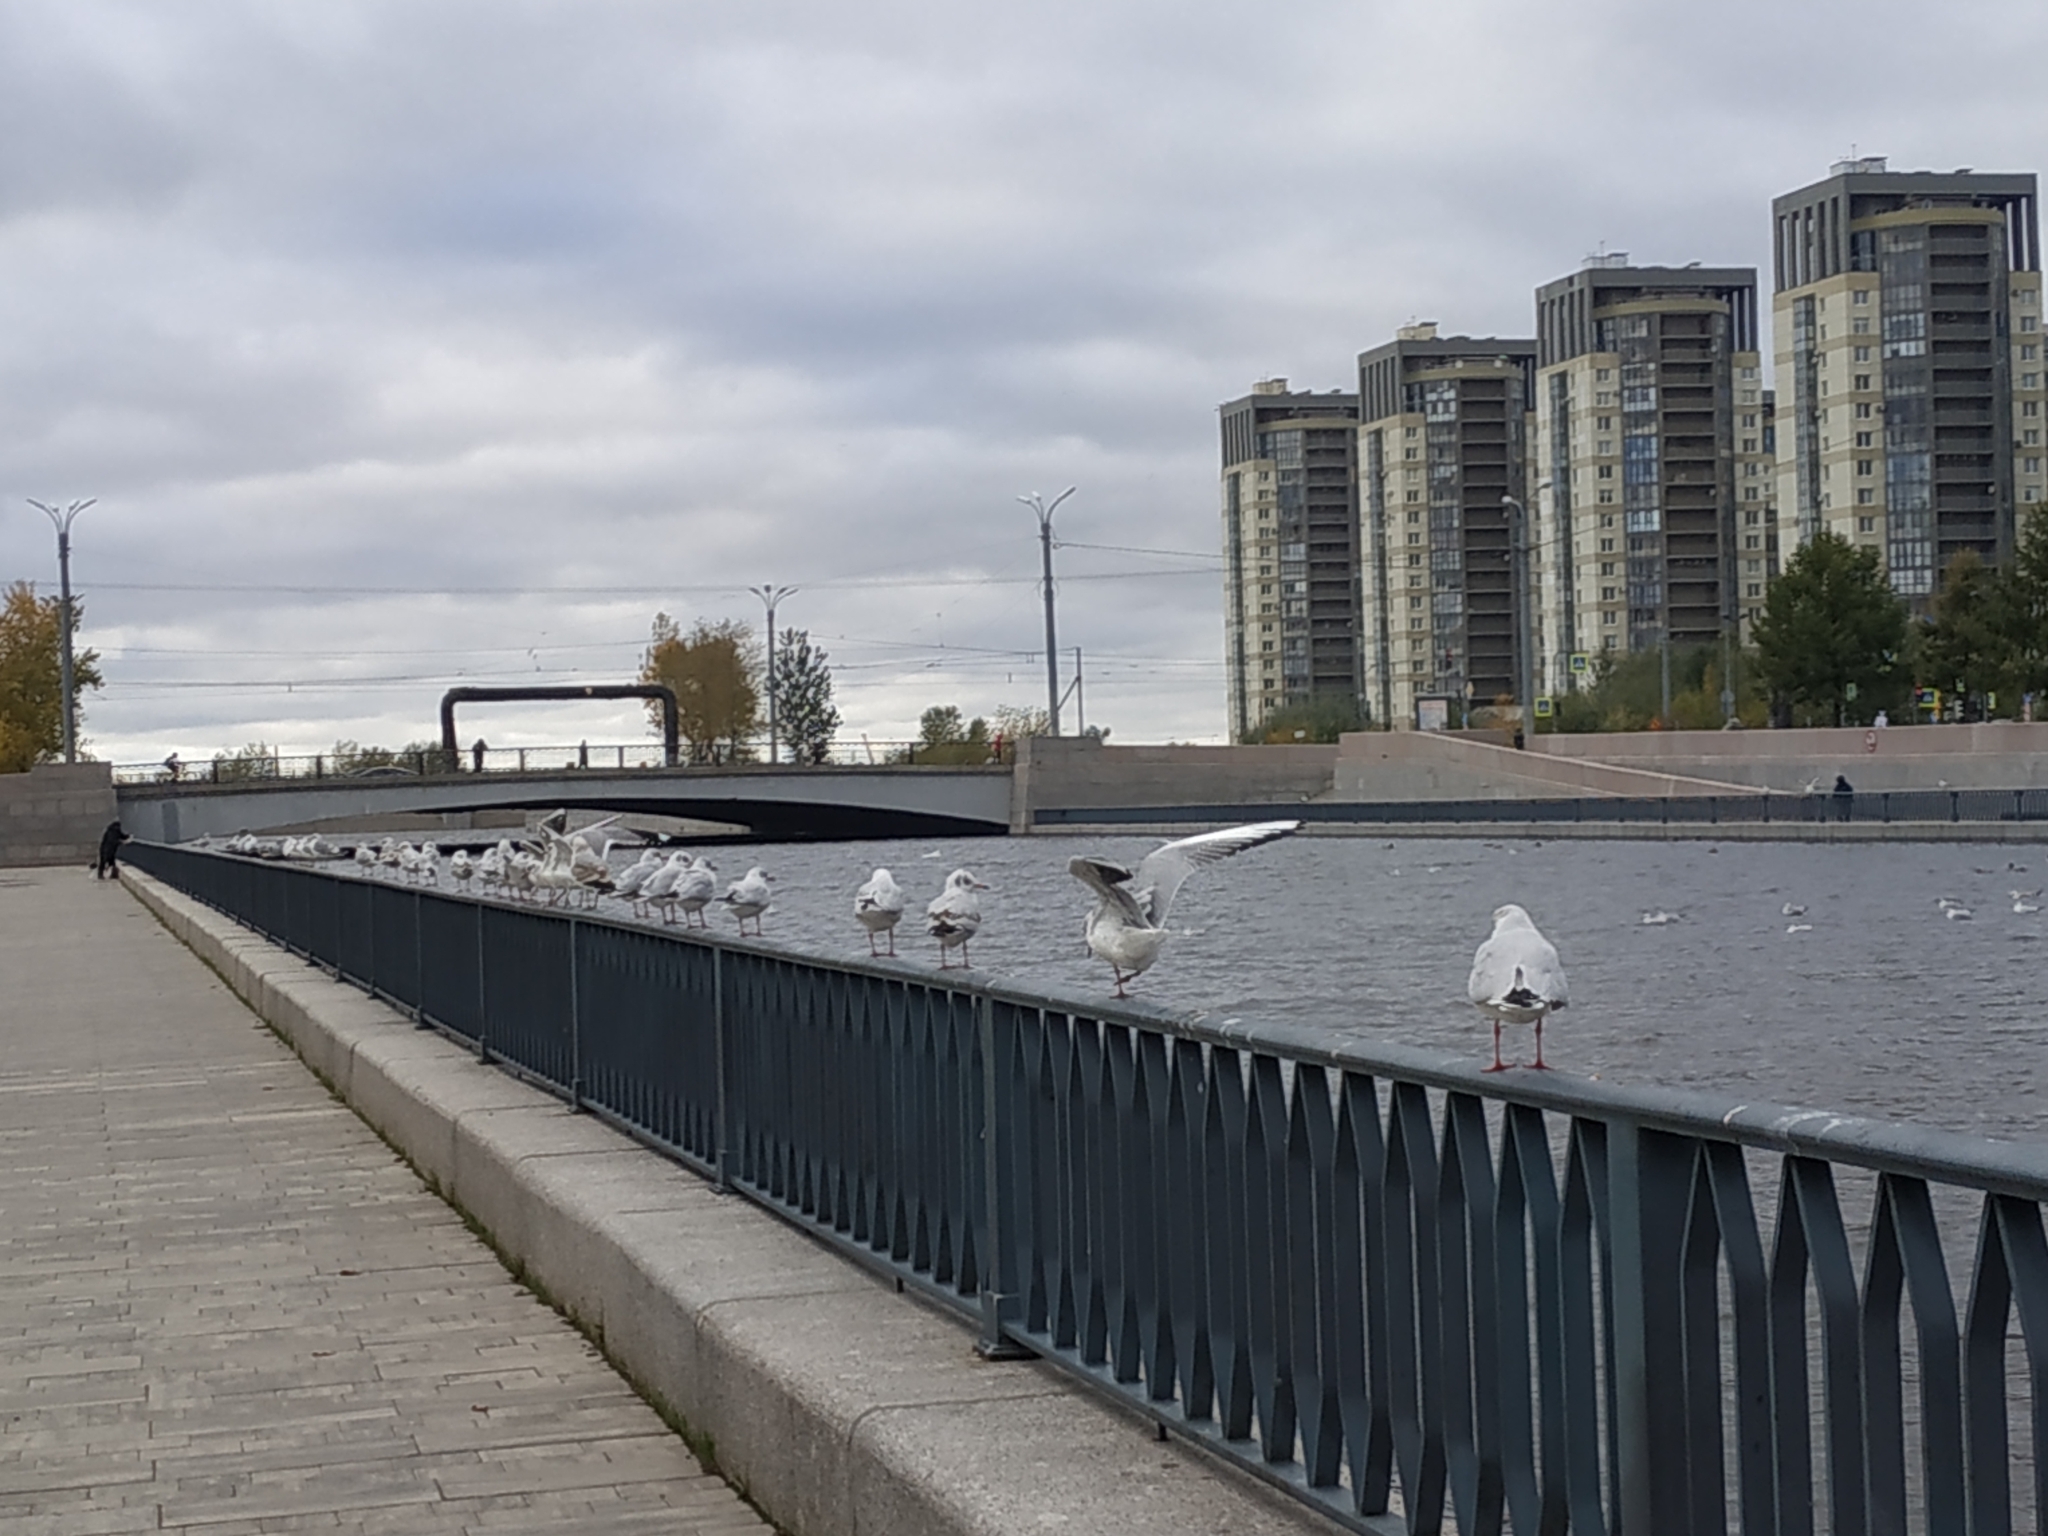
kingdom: Animalia
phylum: Chordata
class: Aves
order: Charadriiformes
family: Laridae
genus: Chroicocephalus
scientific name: Chroicocephalus ridibundus
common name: Black-headed gull
